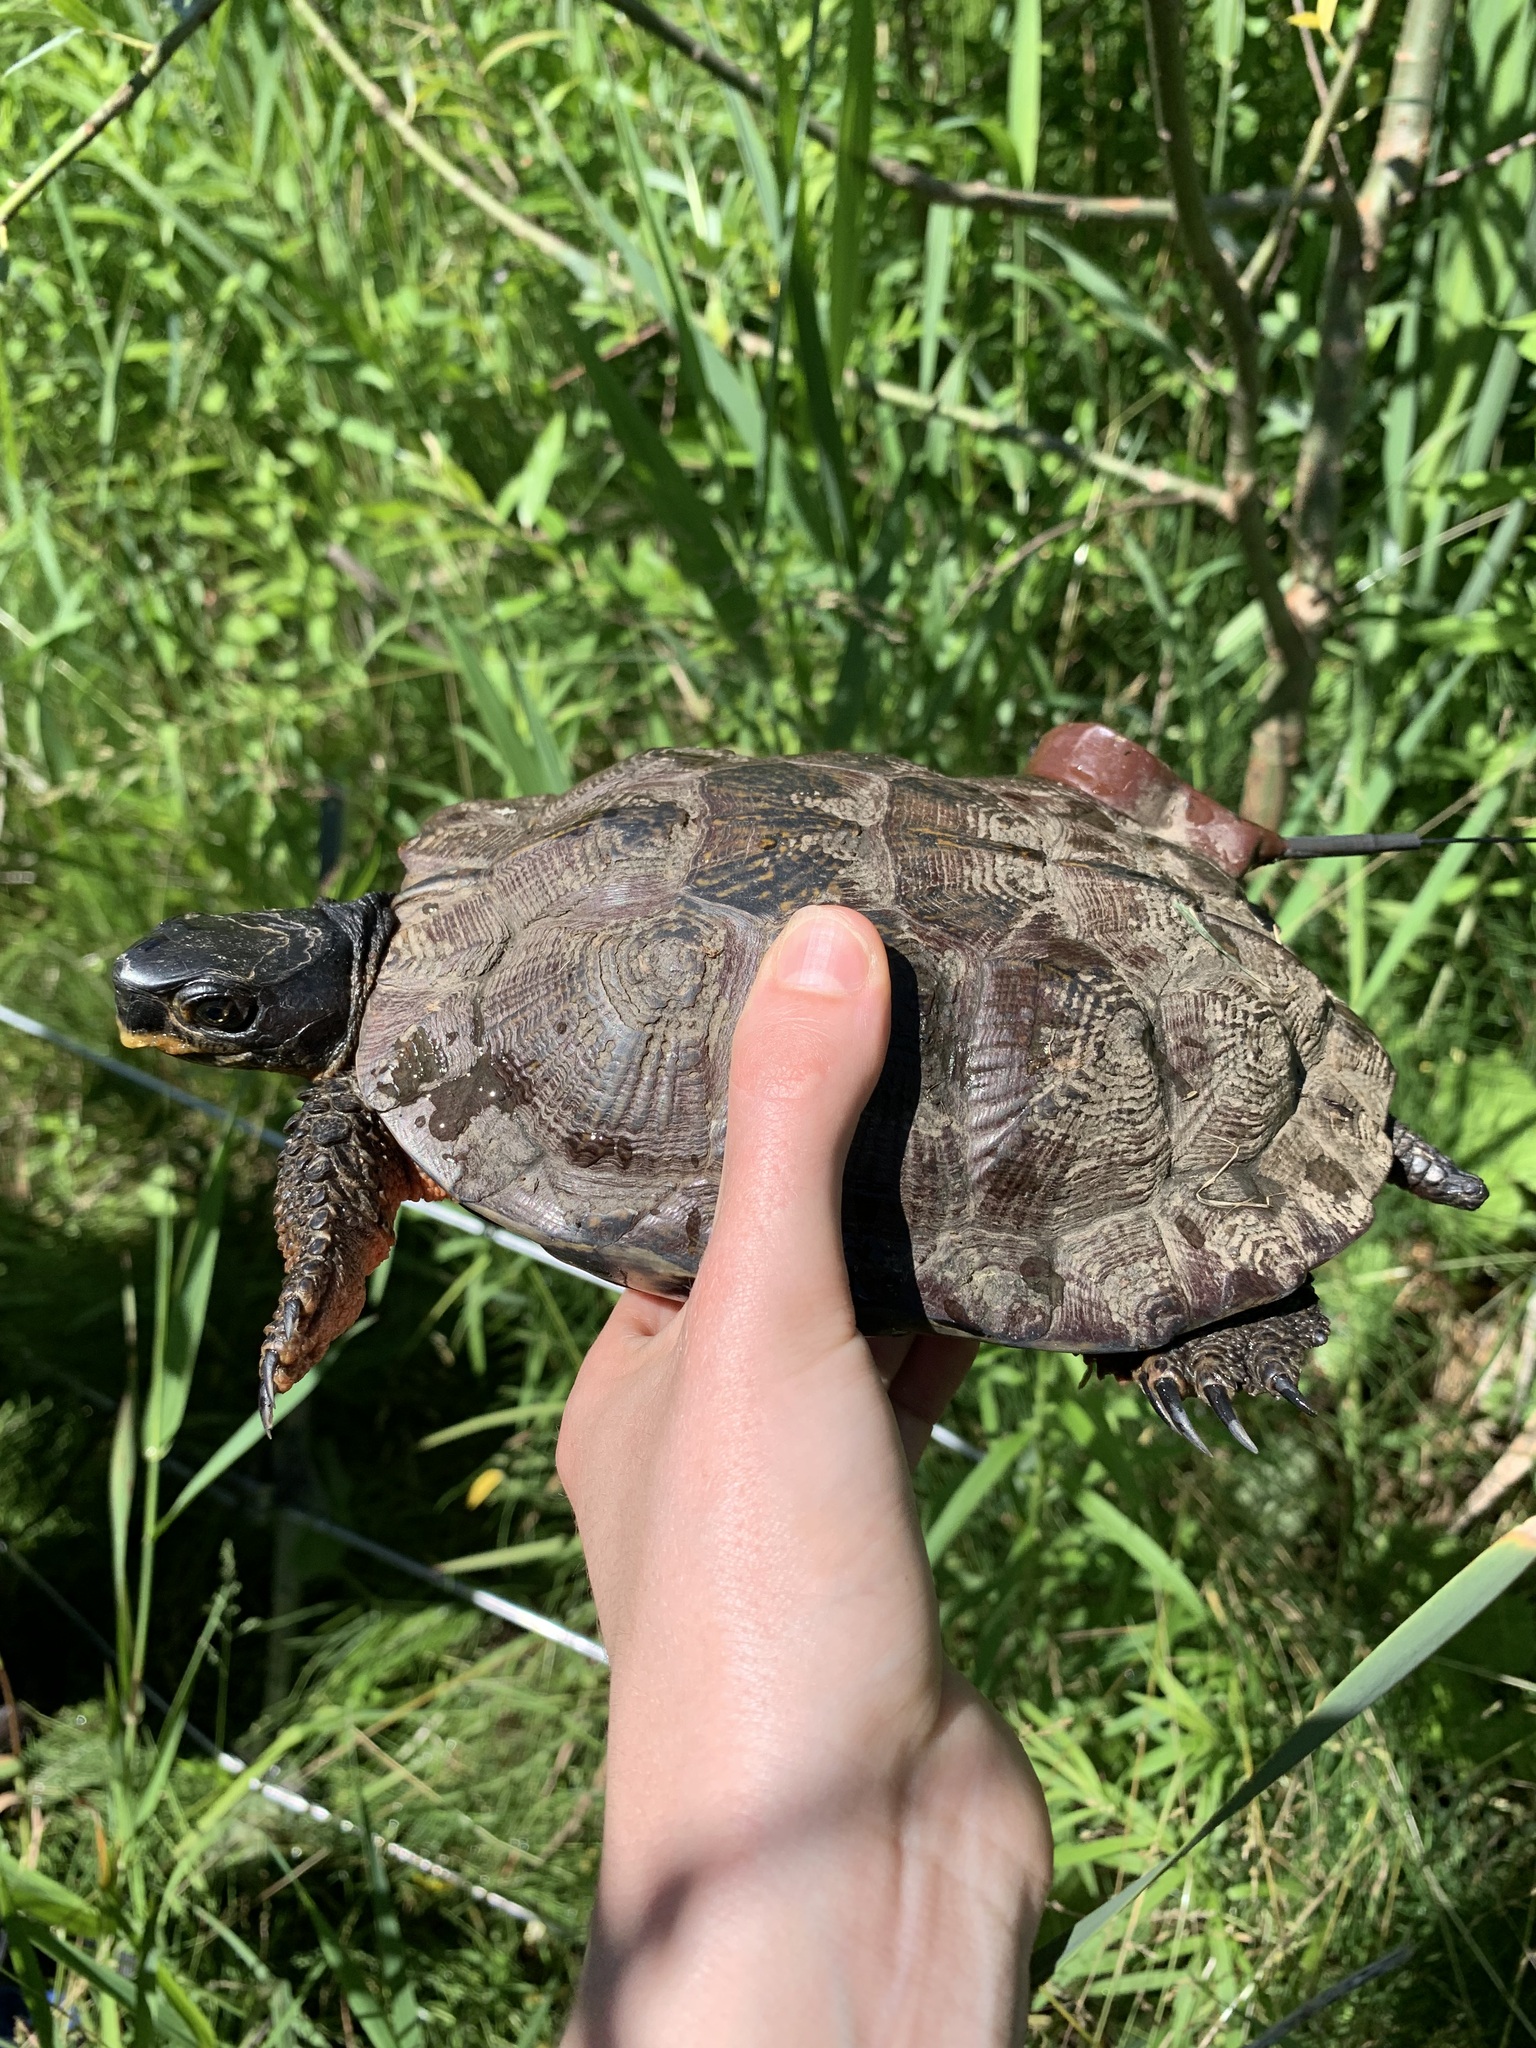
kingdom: Animalia
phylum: Chordata
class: Testudines
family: Emydidae
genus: Glyptemys
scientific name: Glyptemys insculpta
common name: Wood turtle
